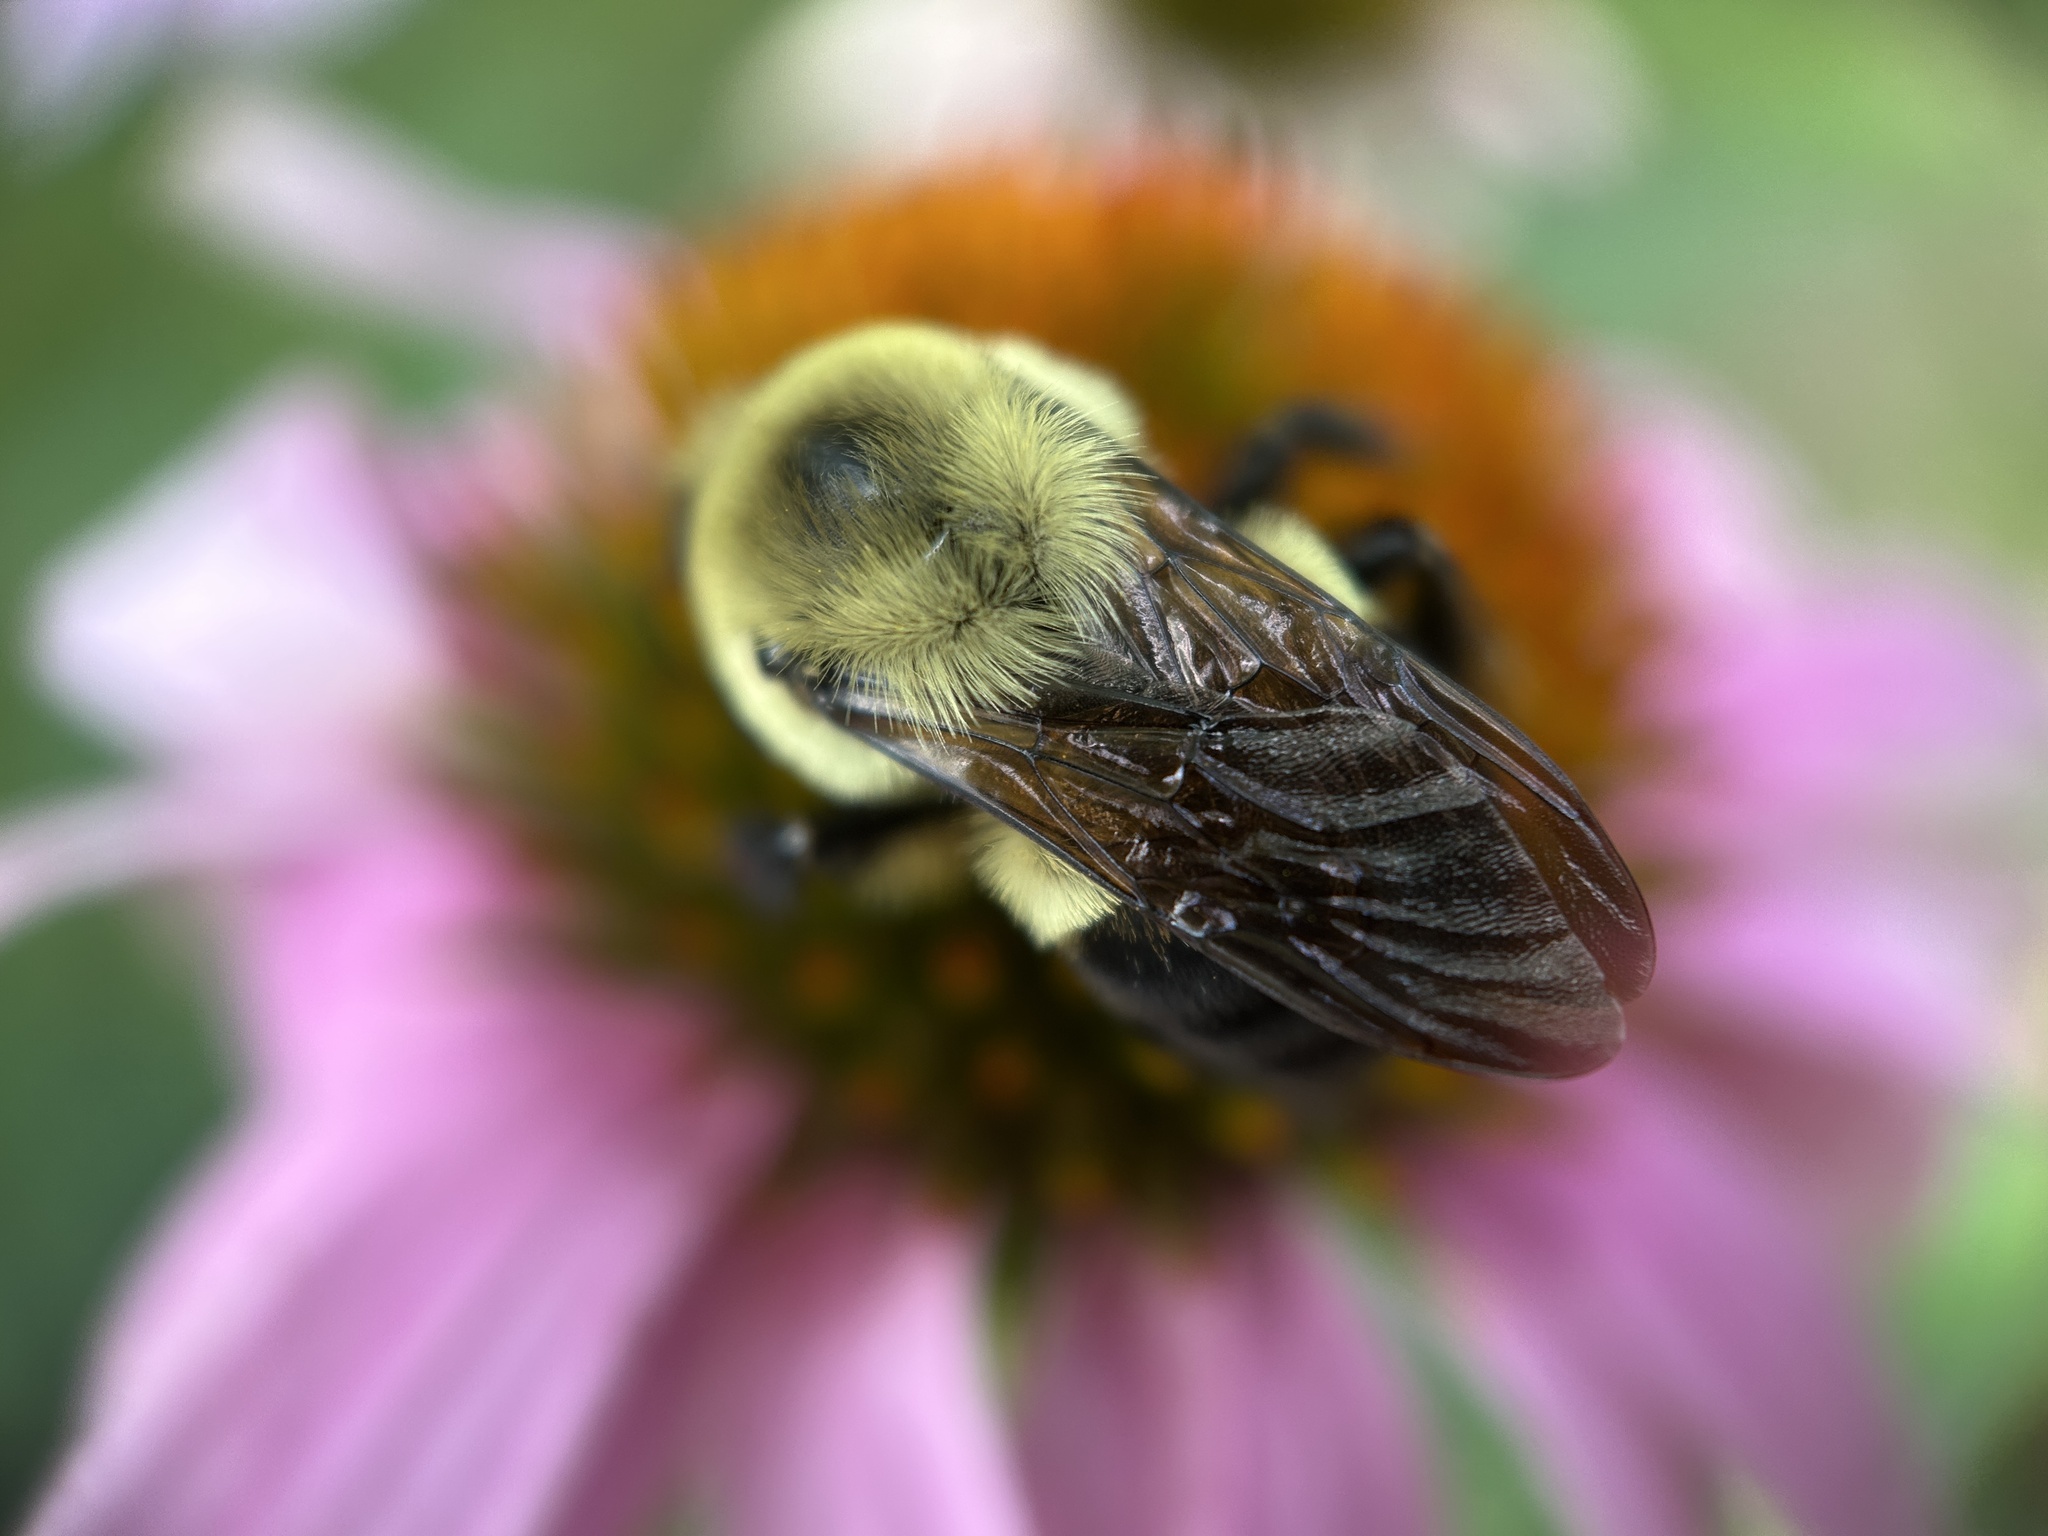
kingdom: Animalia
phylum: Arthropoda
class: Insecta
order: Hymenoptera
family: Apidae
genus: Bombus
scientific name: Bombus griseocollis
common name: Brown-belted bumble bee
